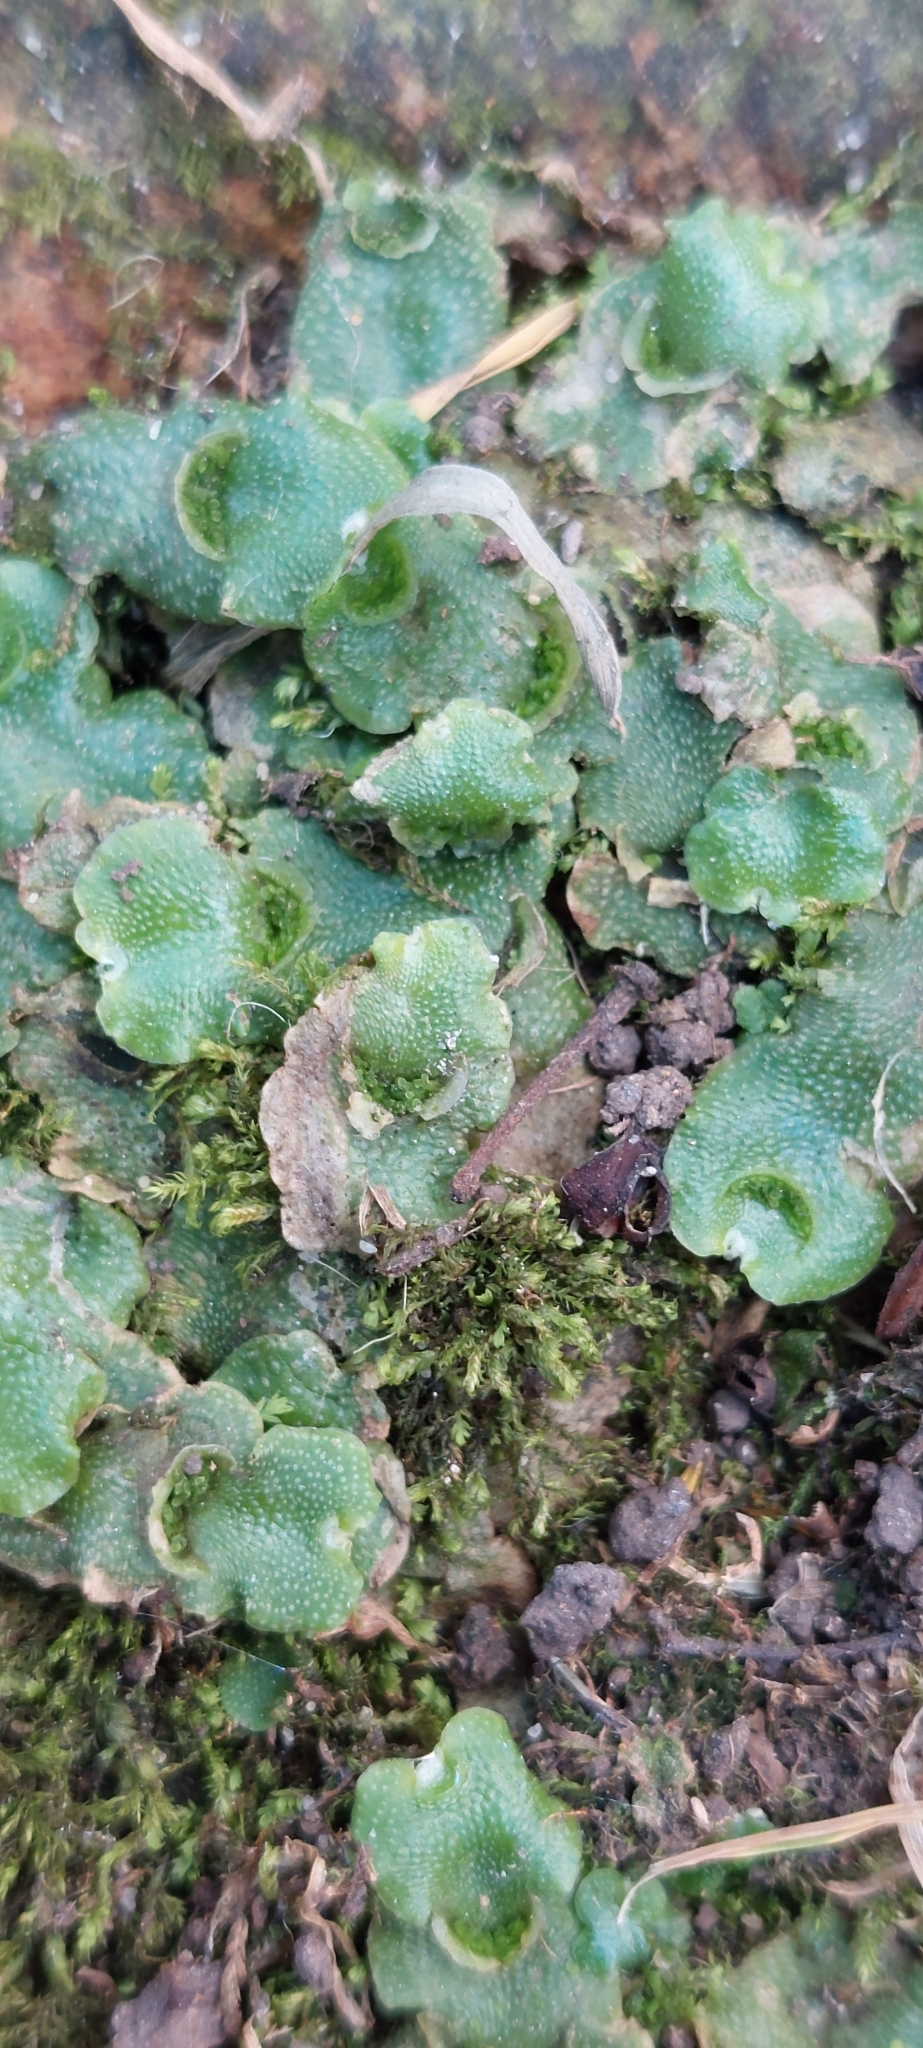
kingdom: Plantae
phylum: Marchantiophyta
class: Marchantiopsida
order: Lunulariales
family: Lunulariaceae
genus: Lunularia
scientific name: Lunularia cruciata
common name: Crescent-cup liverwort
